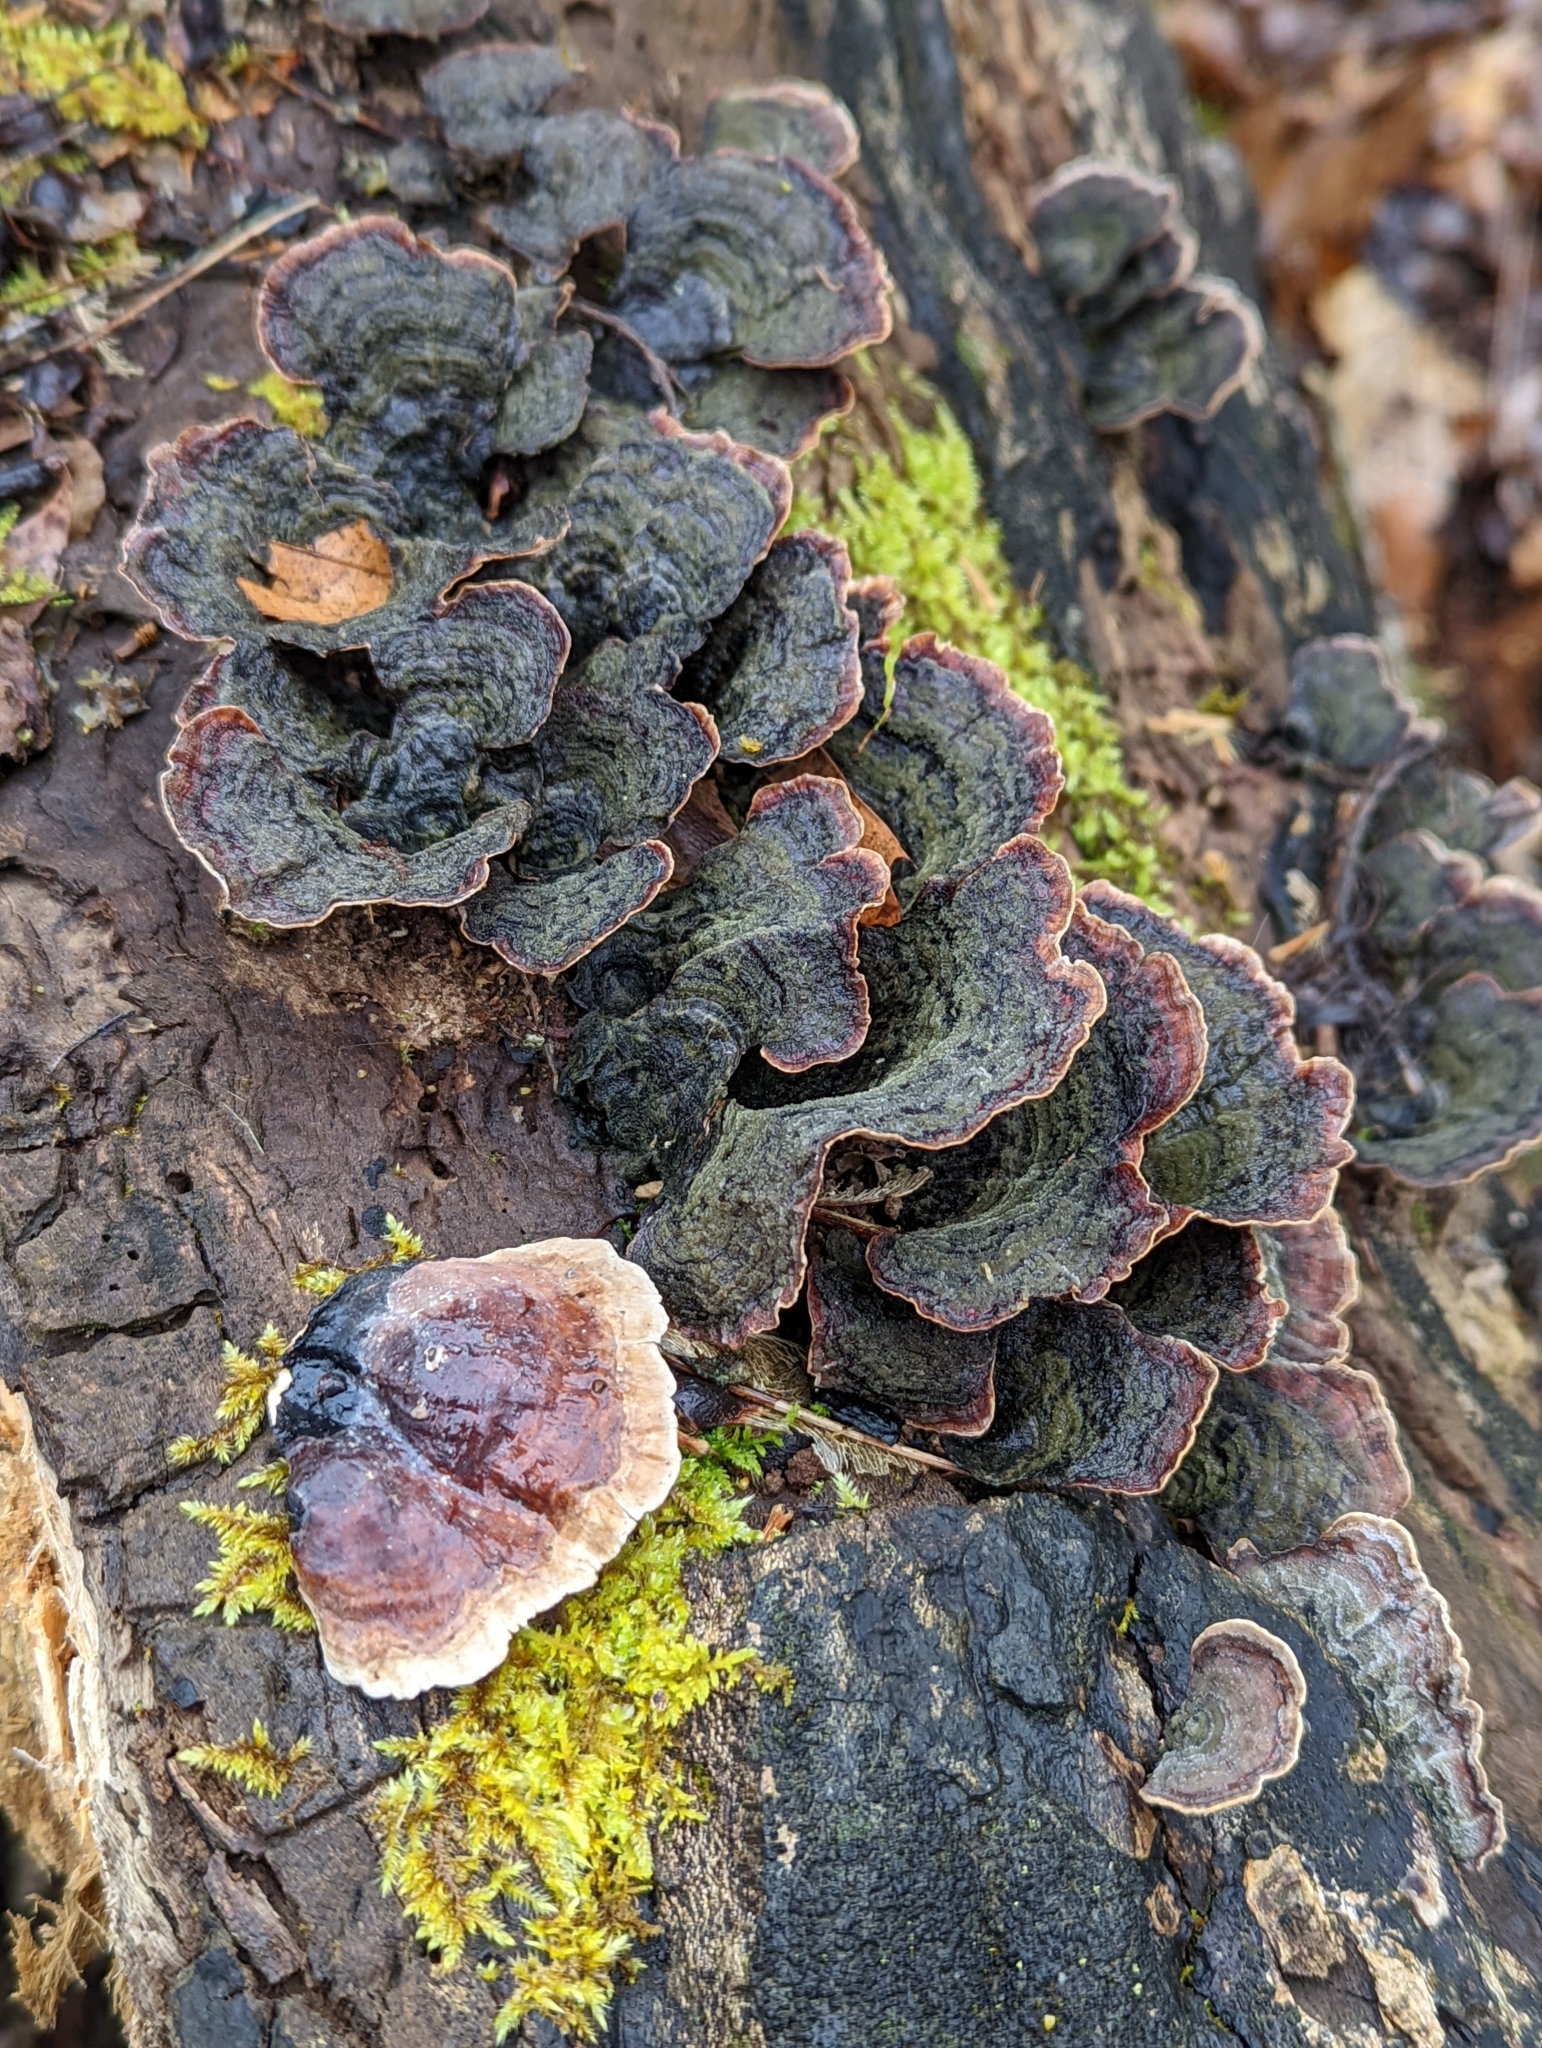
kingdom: Fungi
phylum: Basidiomycota
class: Agaricomycetes
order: Russulales
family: Stereaceae
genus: Stereum
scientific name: Stereum ostrea
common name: False turkeytail
